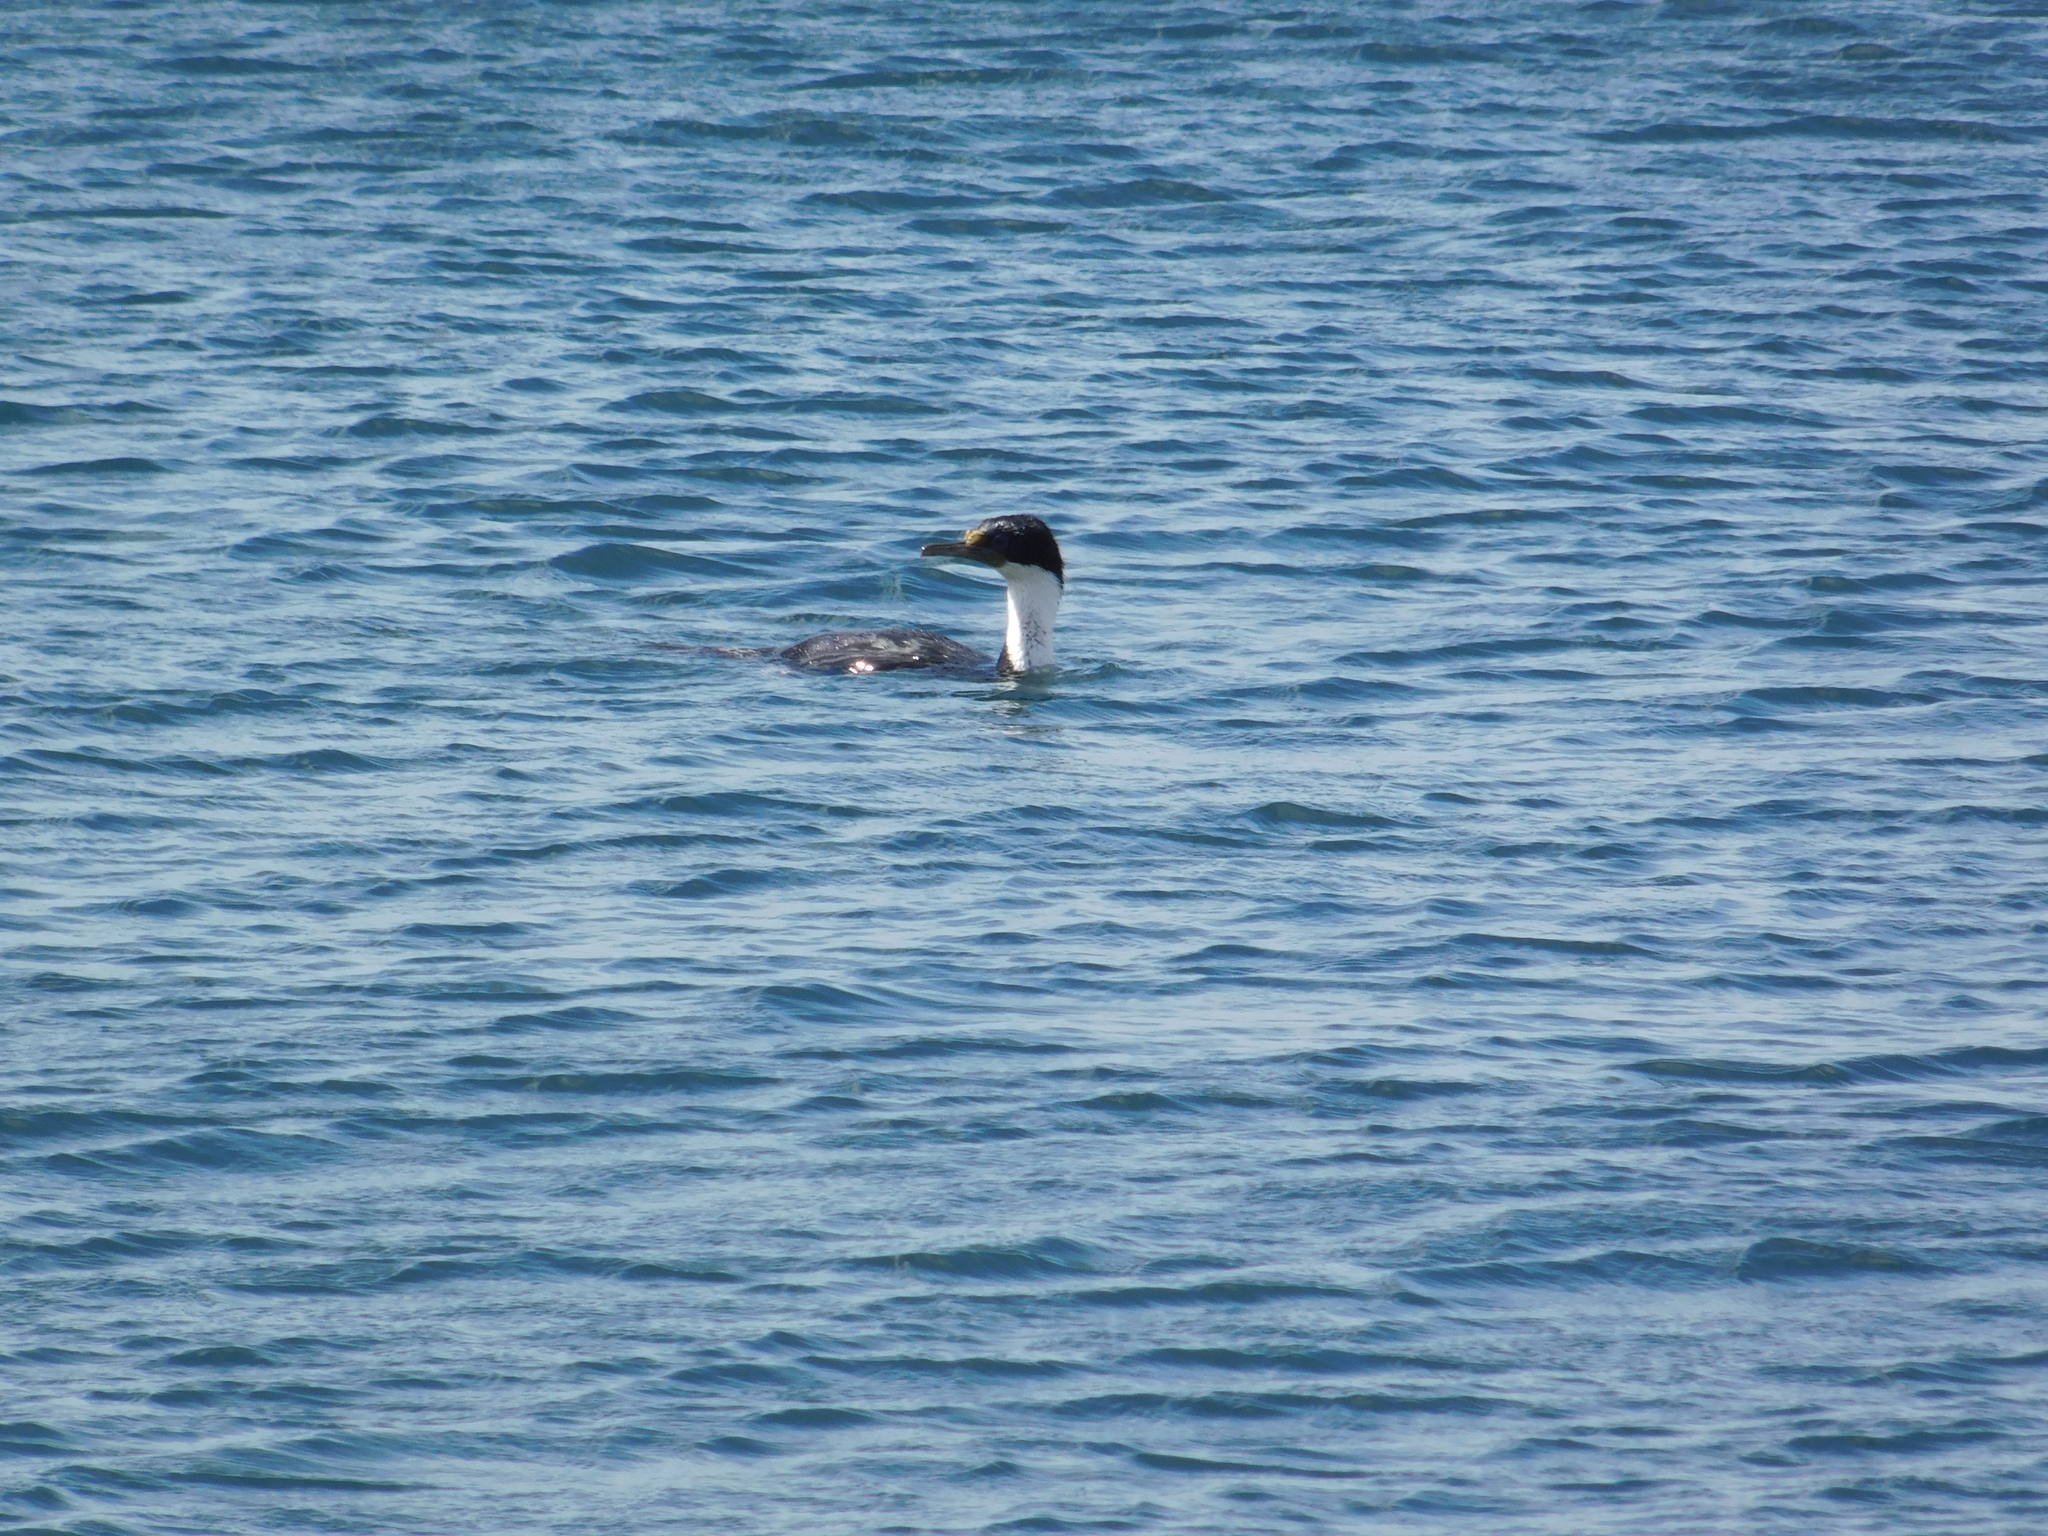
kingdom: Animalia
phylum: Chordata
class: Aves
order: Suliformes
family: Phalacrocoracidae
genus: Leucocarbo
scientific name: Leucocarbo atriceps
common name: Imperial shag
